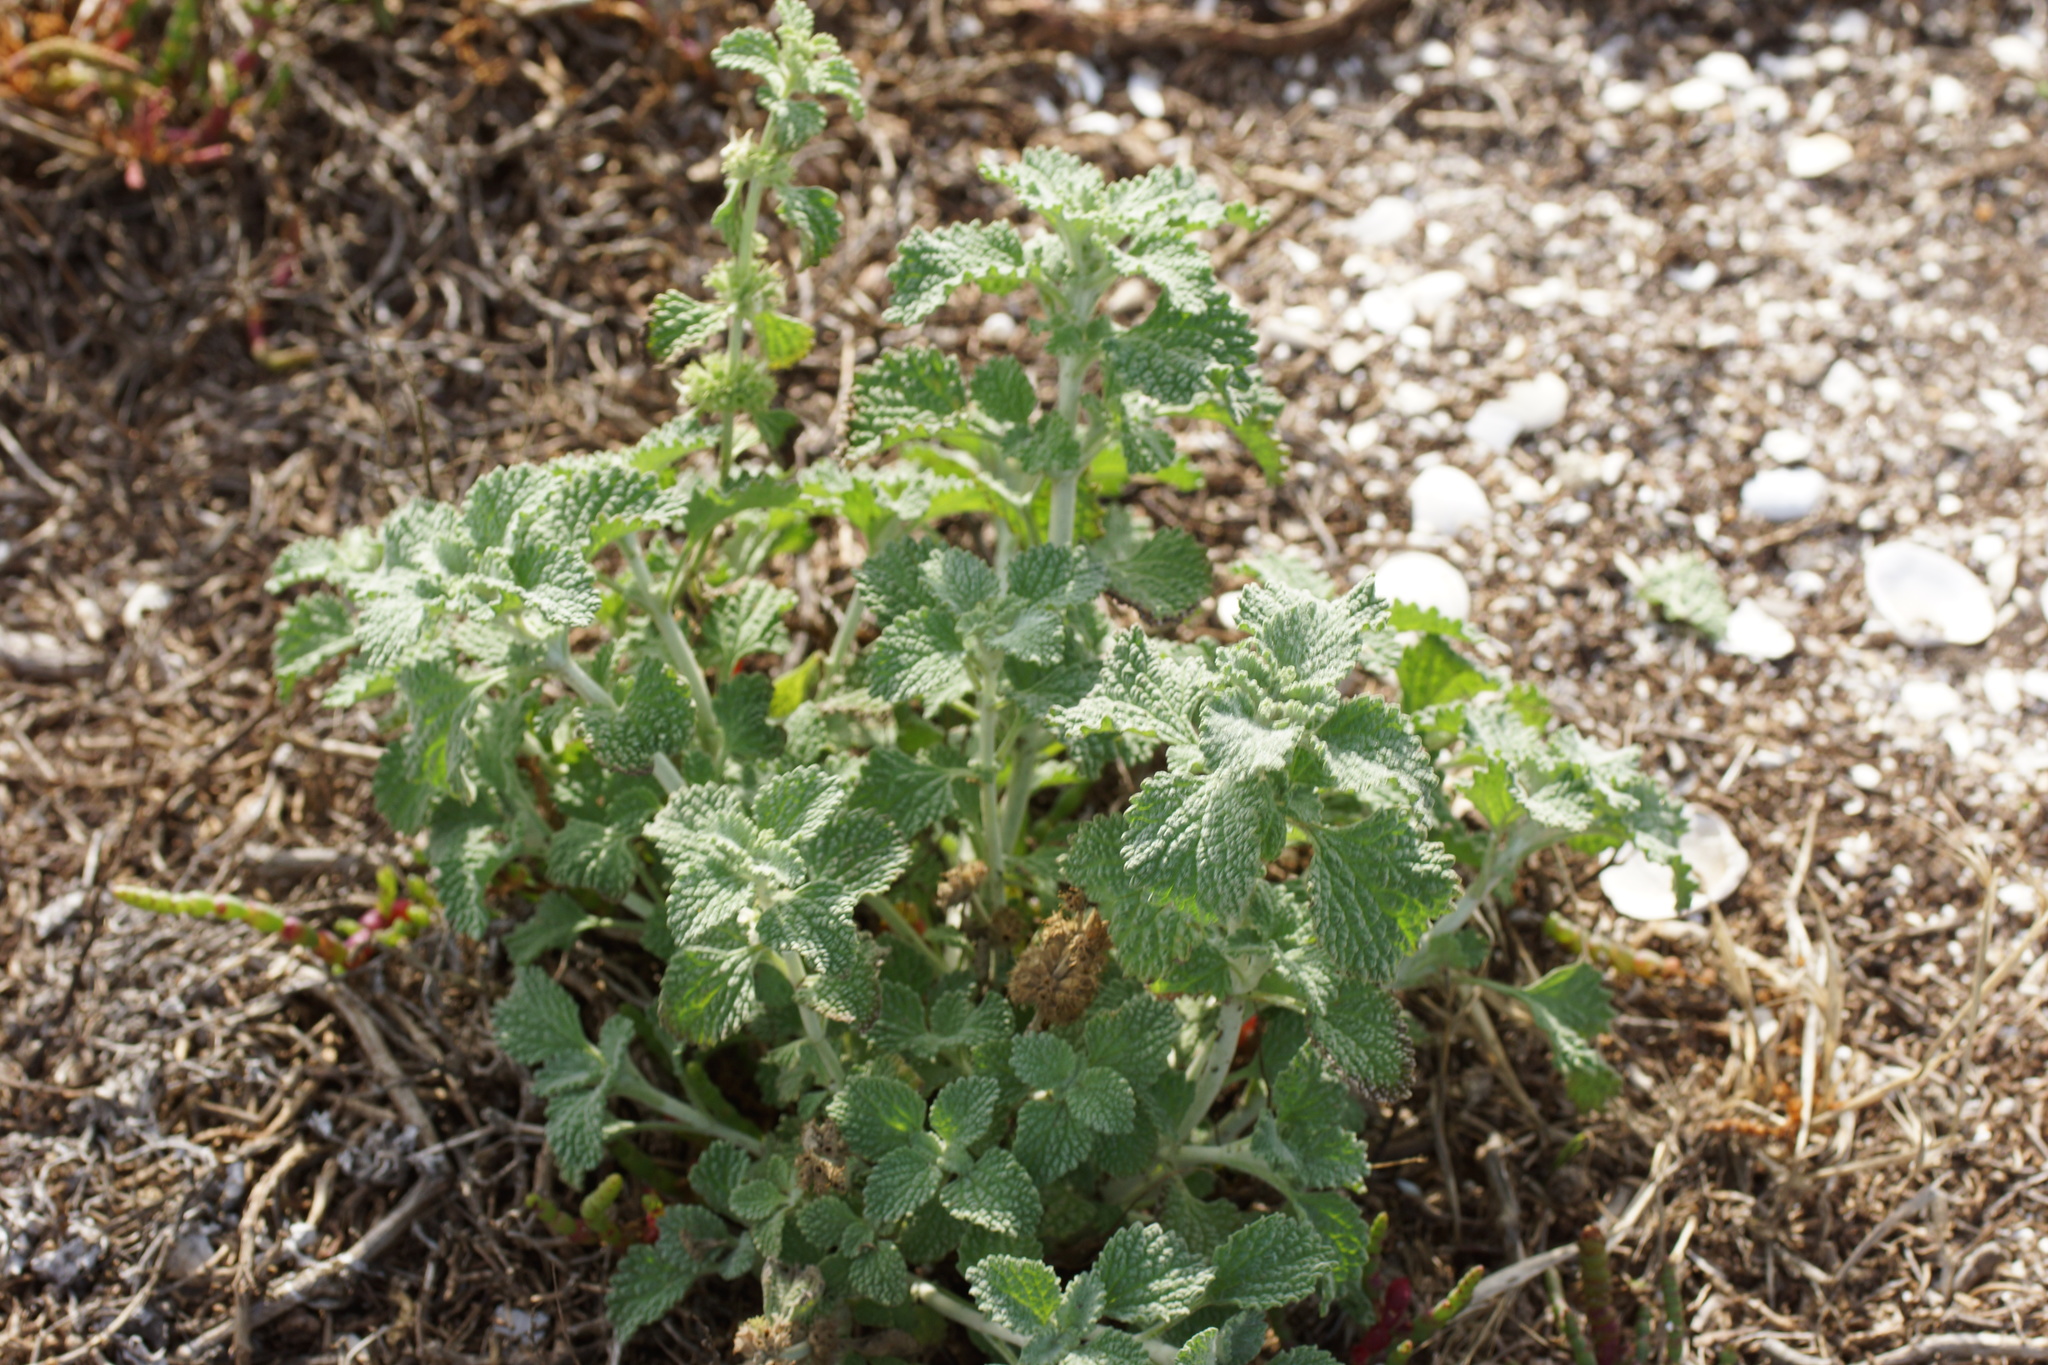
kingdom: Plantae
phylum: Tracheophyta
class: Magnoliopsida
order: Lamiales
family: Lamiaceae
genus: Marrubium
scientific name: Marrubium vulgare
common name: Horehound
